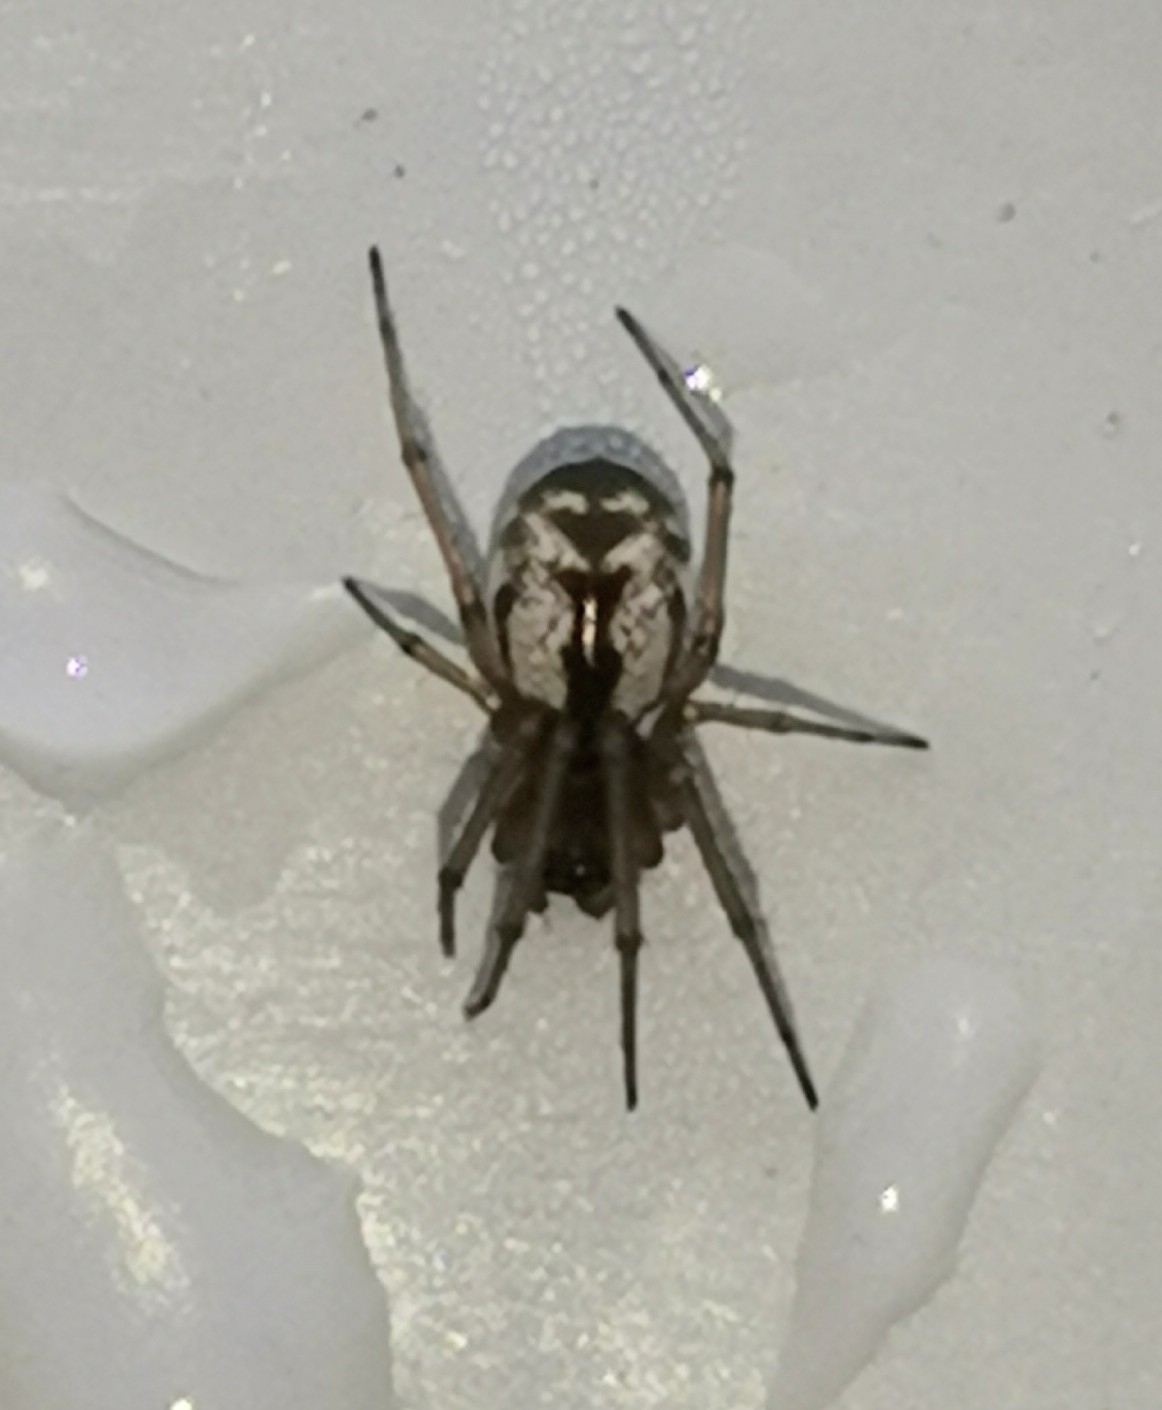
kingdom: Animalia
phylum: Arthropoda
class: Arachnida
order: Araneae
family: Linyphiidae
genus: Microlinyphia
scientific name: Microlinyphia pusilla
